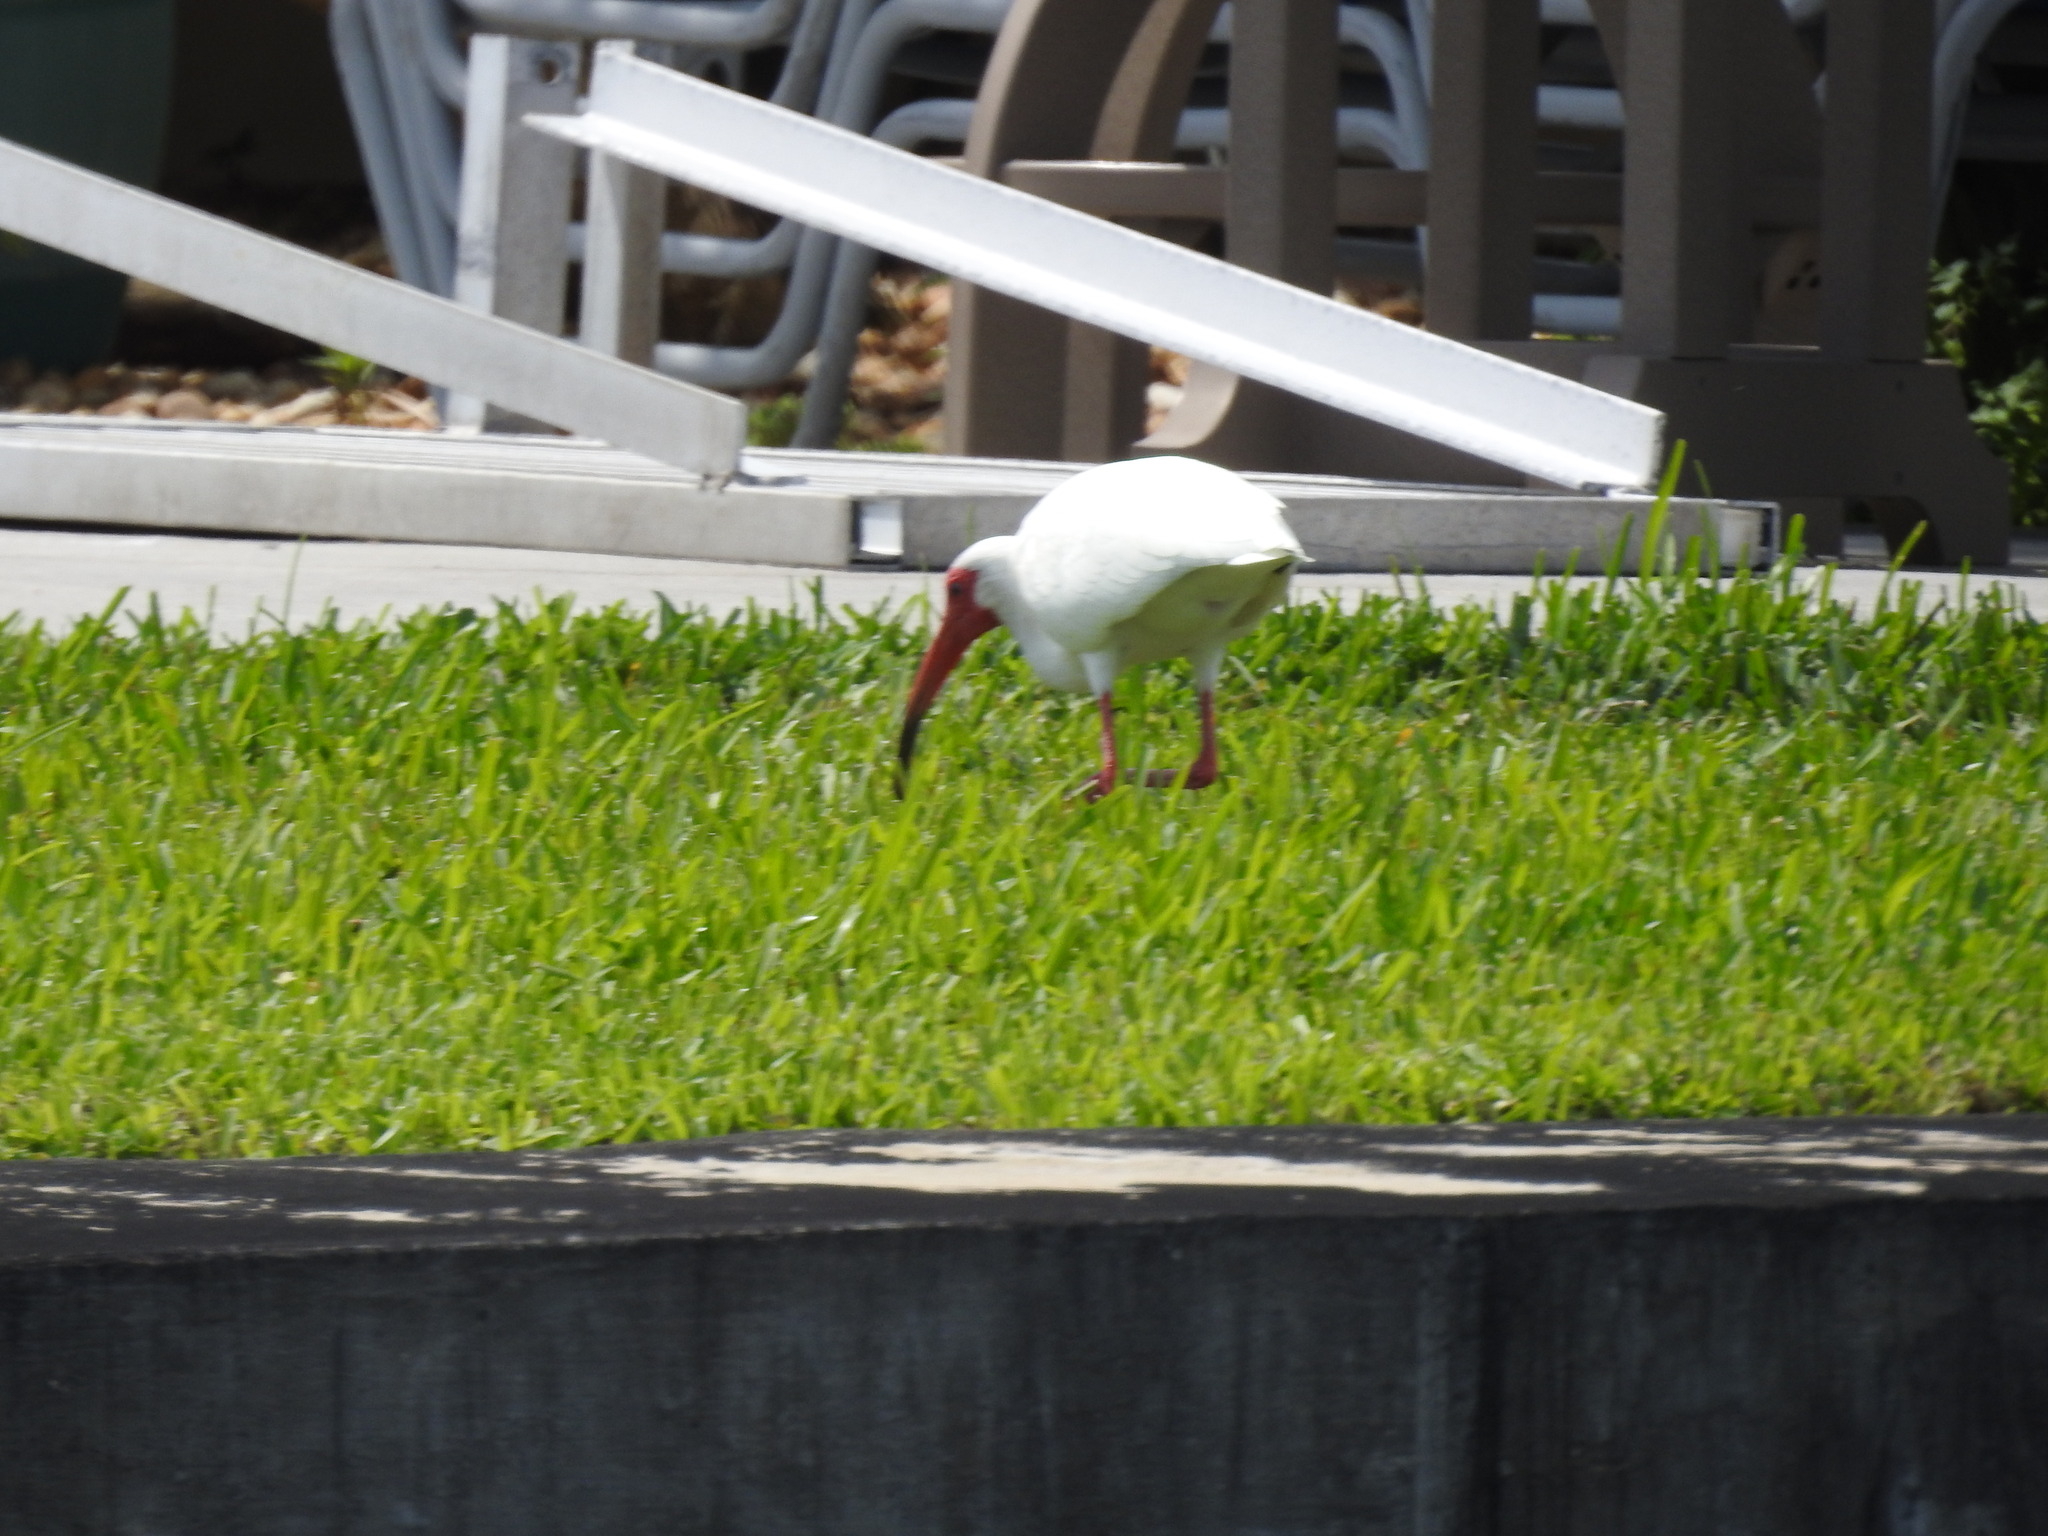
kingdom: Animalia
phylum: Chordata
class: Aves
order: Pelecaniformes
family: Threskiornithidae
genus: Eudocimus
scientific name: Eudocimus albus
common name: White ibis
